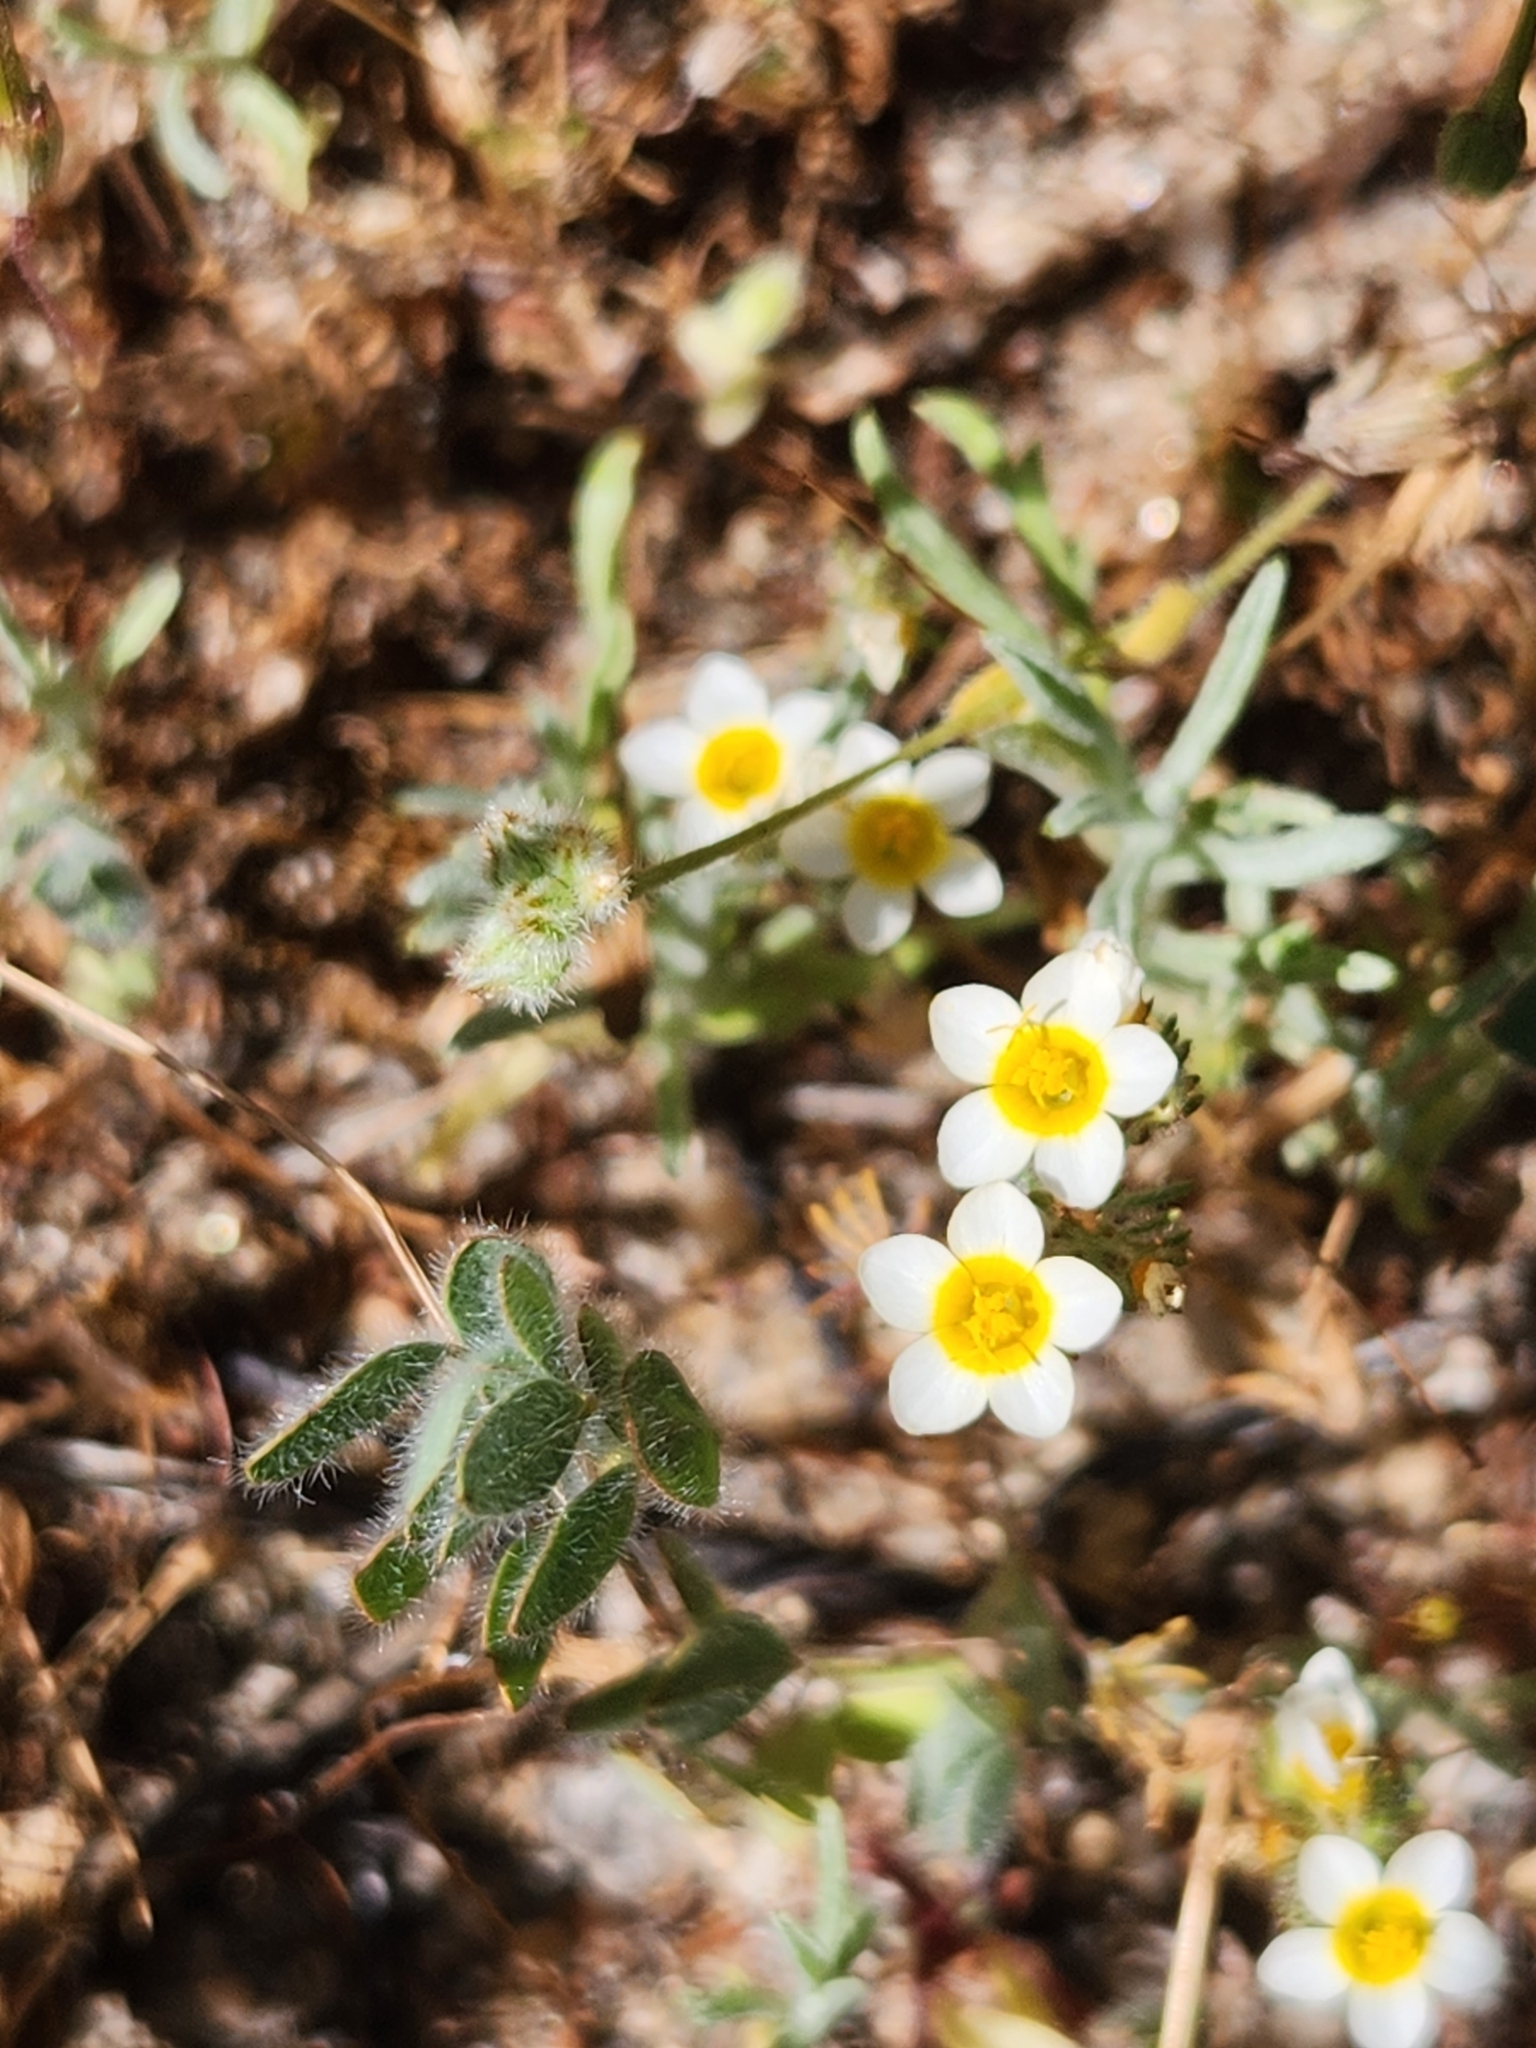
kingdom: Plantae
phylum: Tracheophyta
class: Magnoliopsida
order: Ericales
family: Polemoniaceae
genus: Leptosiphon
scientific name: Leptosiphon lemmonii
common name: Lemmon's linanthus
